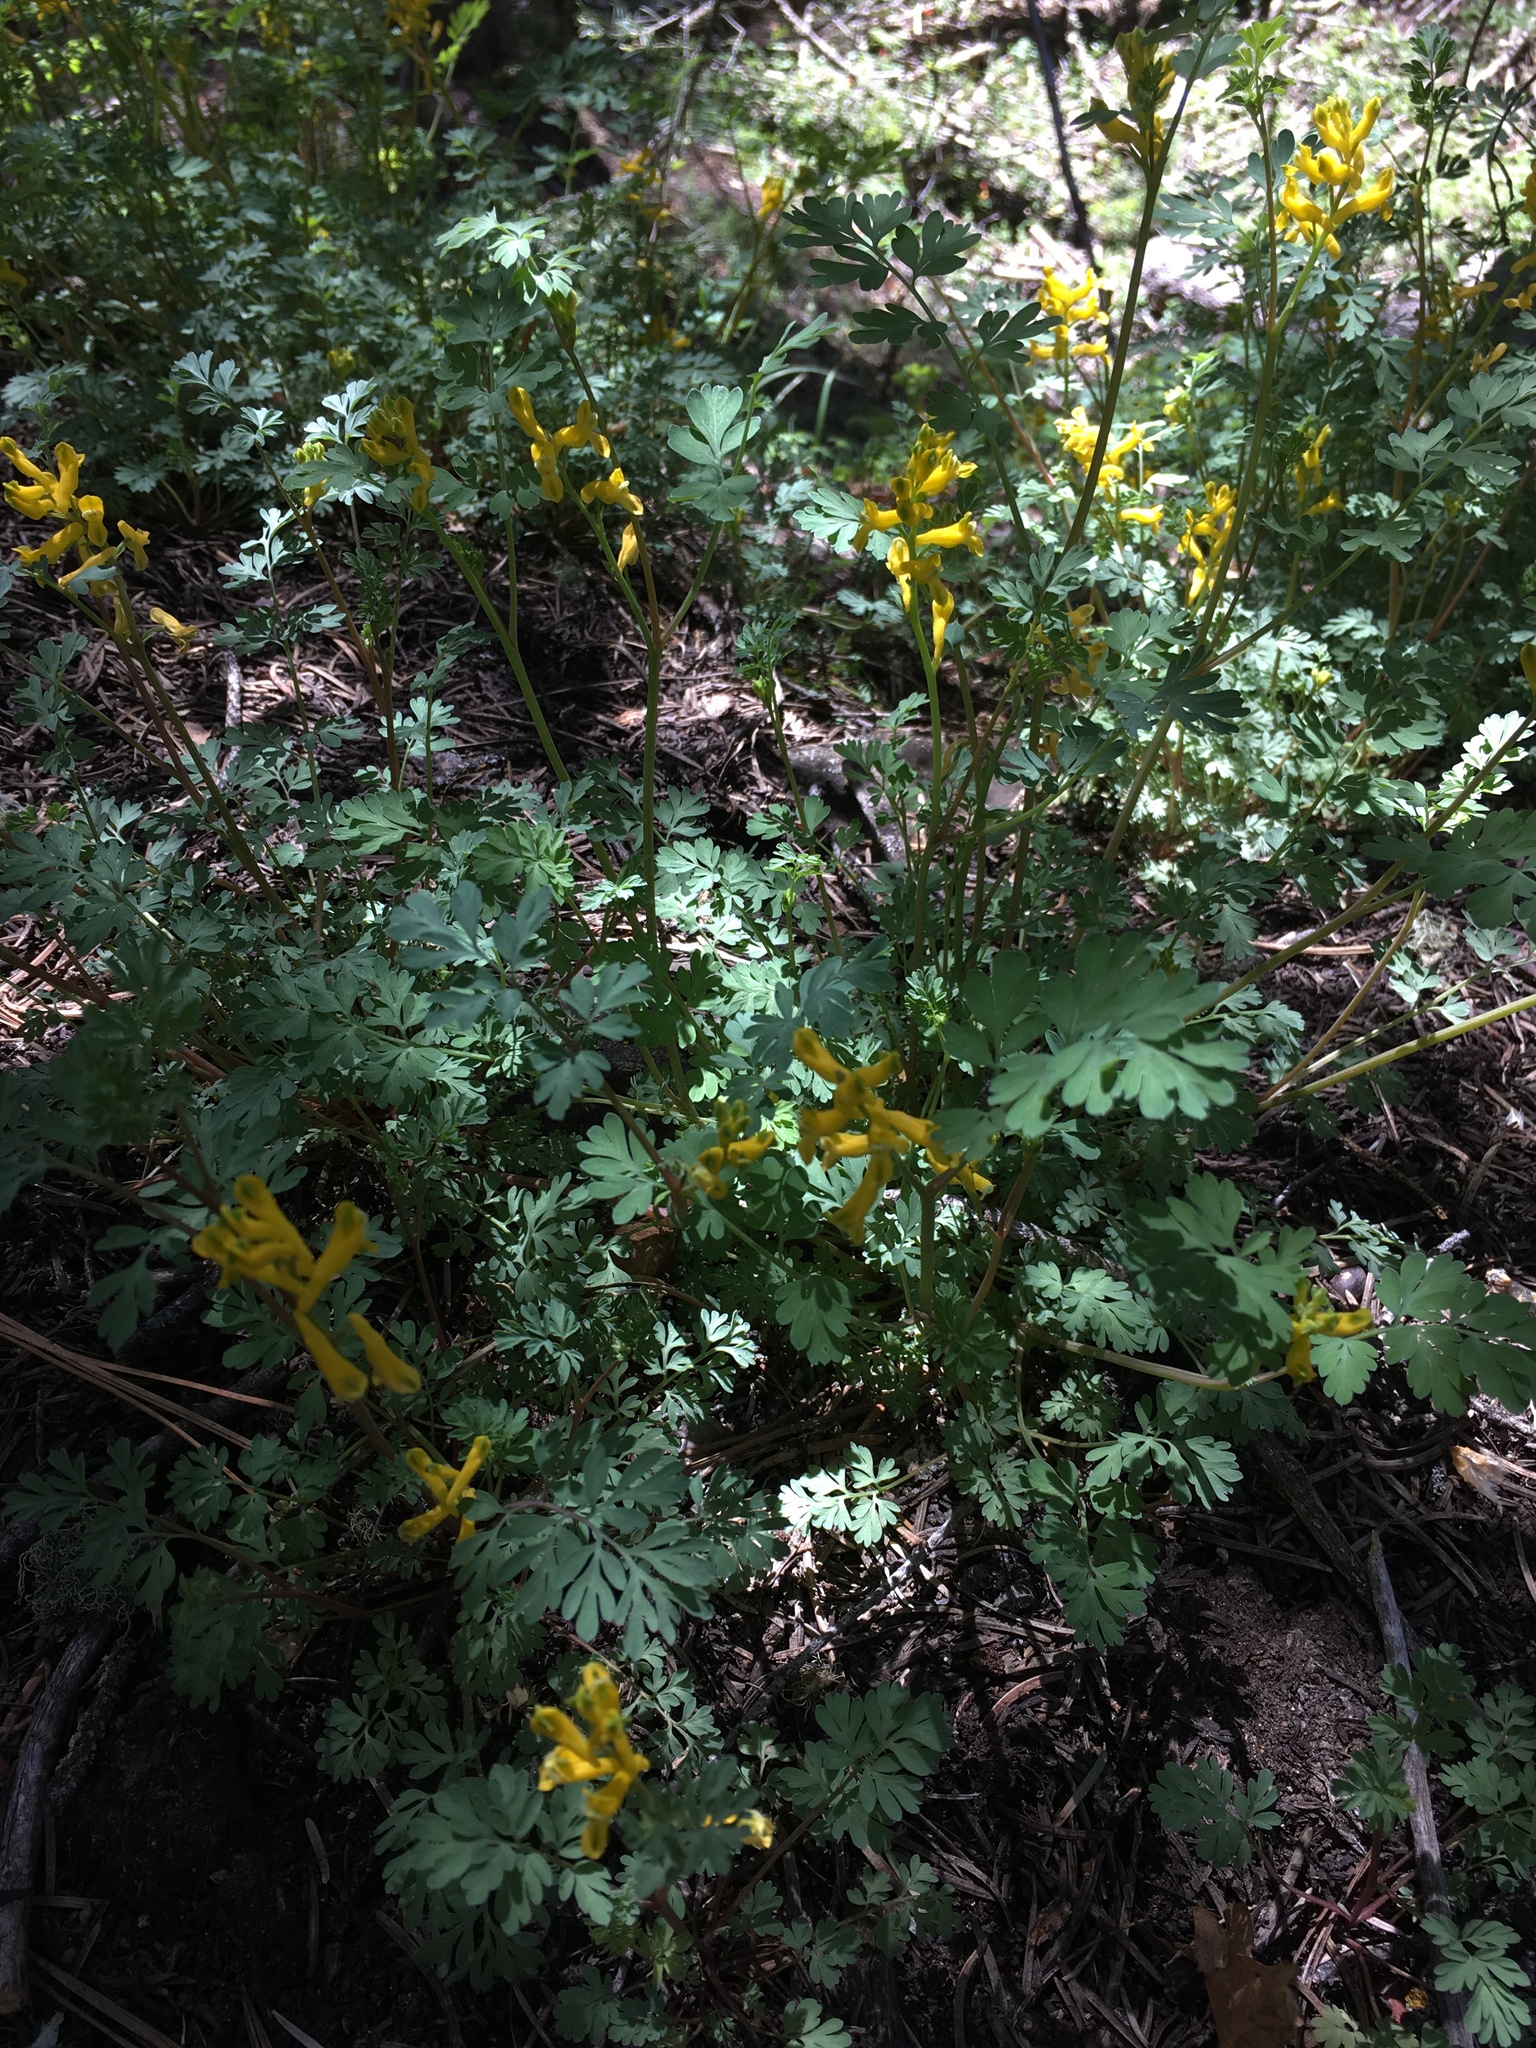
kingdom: Plantae
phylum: Tracheophyta
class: Magnoliopsida
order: Ranunculales
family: Papaveraceae
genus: Corydalis
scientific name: Corydalis aurea
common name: Golden corydalis
